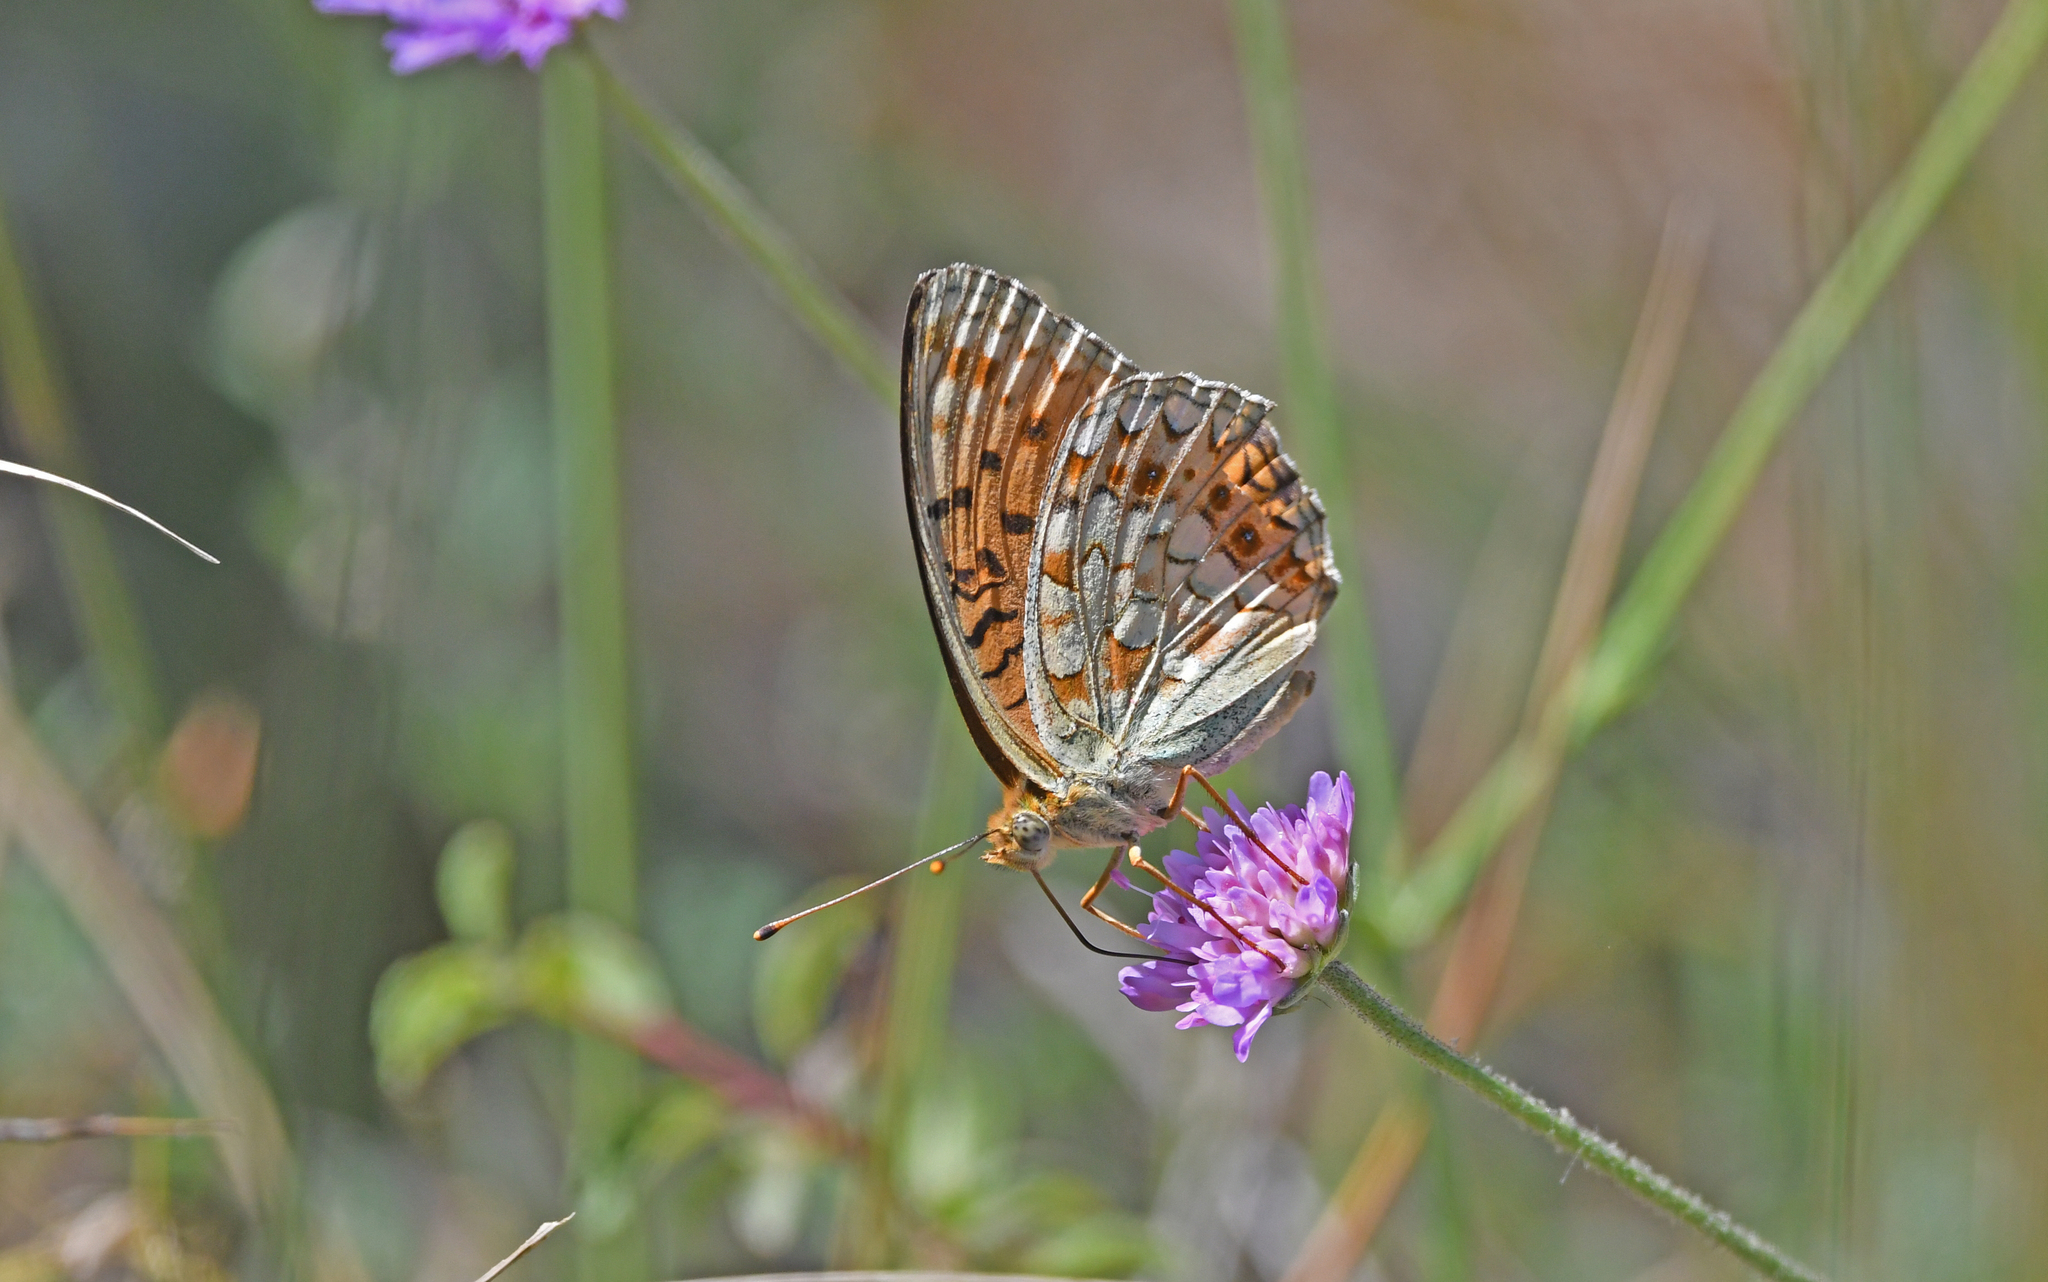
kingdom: Animalia
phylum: Arthropoda
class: Insecta
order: Lepidoptera
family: Nymphalidae
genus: Fabriciana
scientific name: Fabriciana niobe
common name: Niobe fritillary
